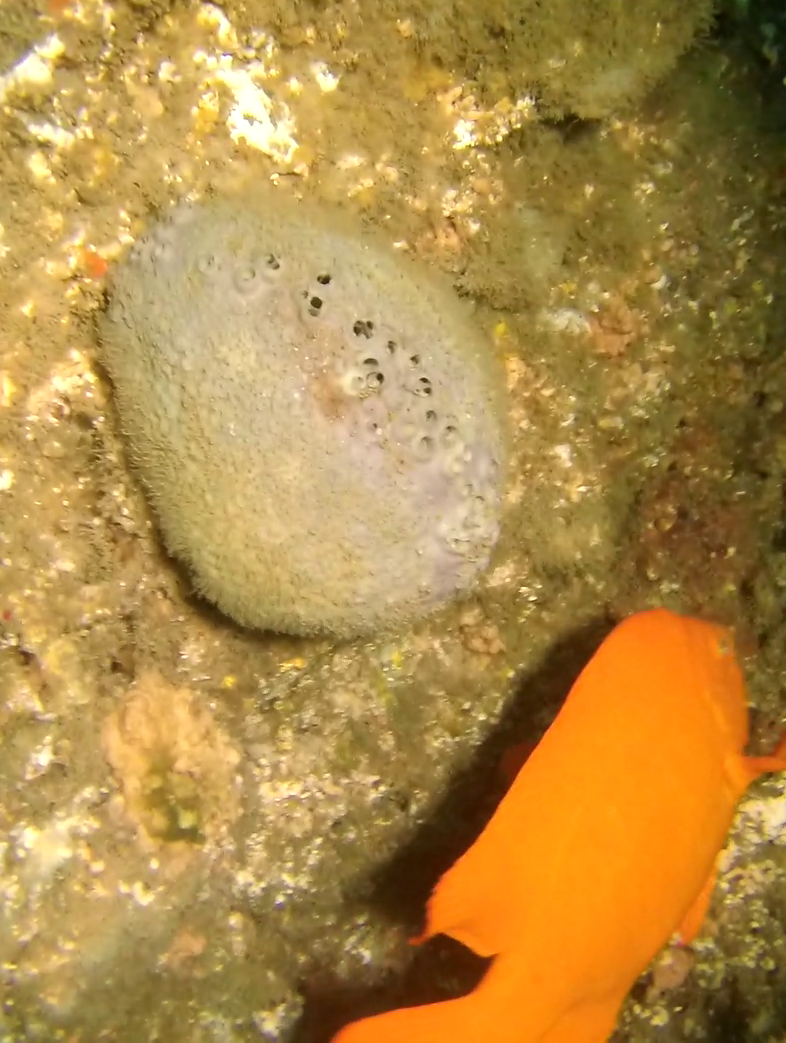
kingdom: Animalia
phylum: Porifera
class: Demospongiae
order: Clionaida
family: Clionaidae
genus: Spheciospongia
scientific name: Spheciospongia confoederata
